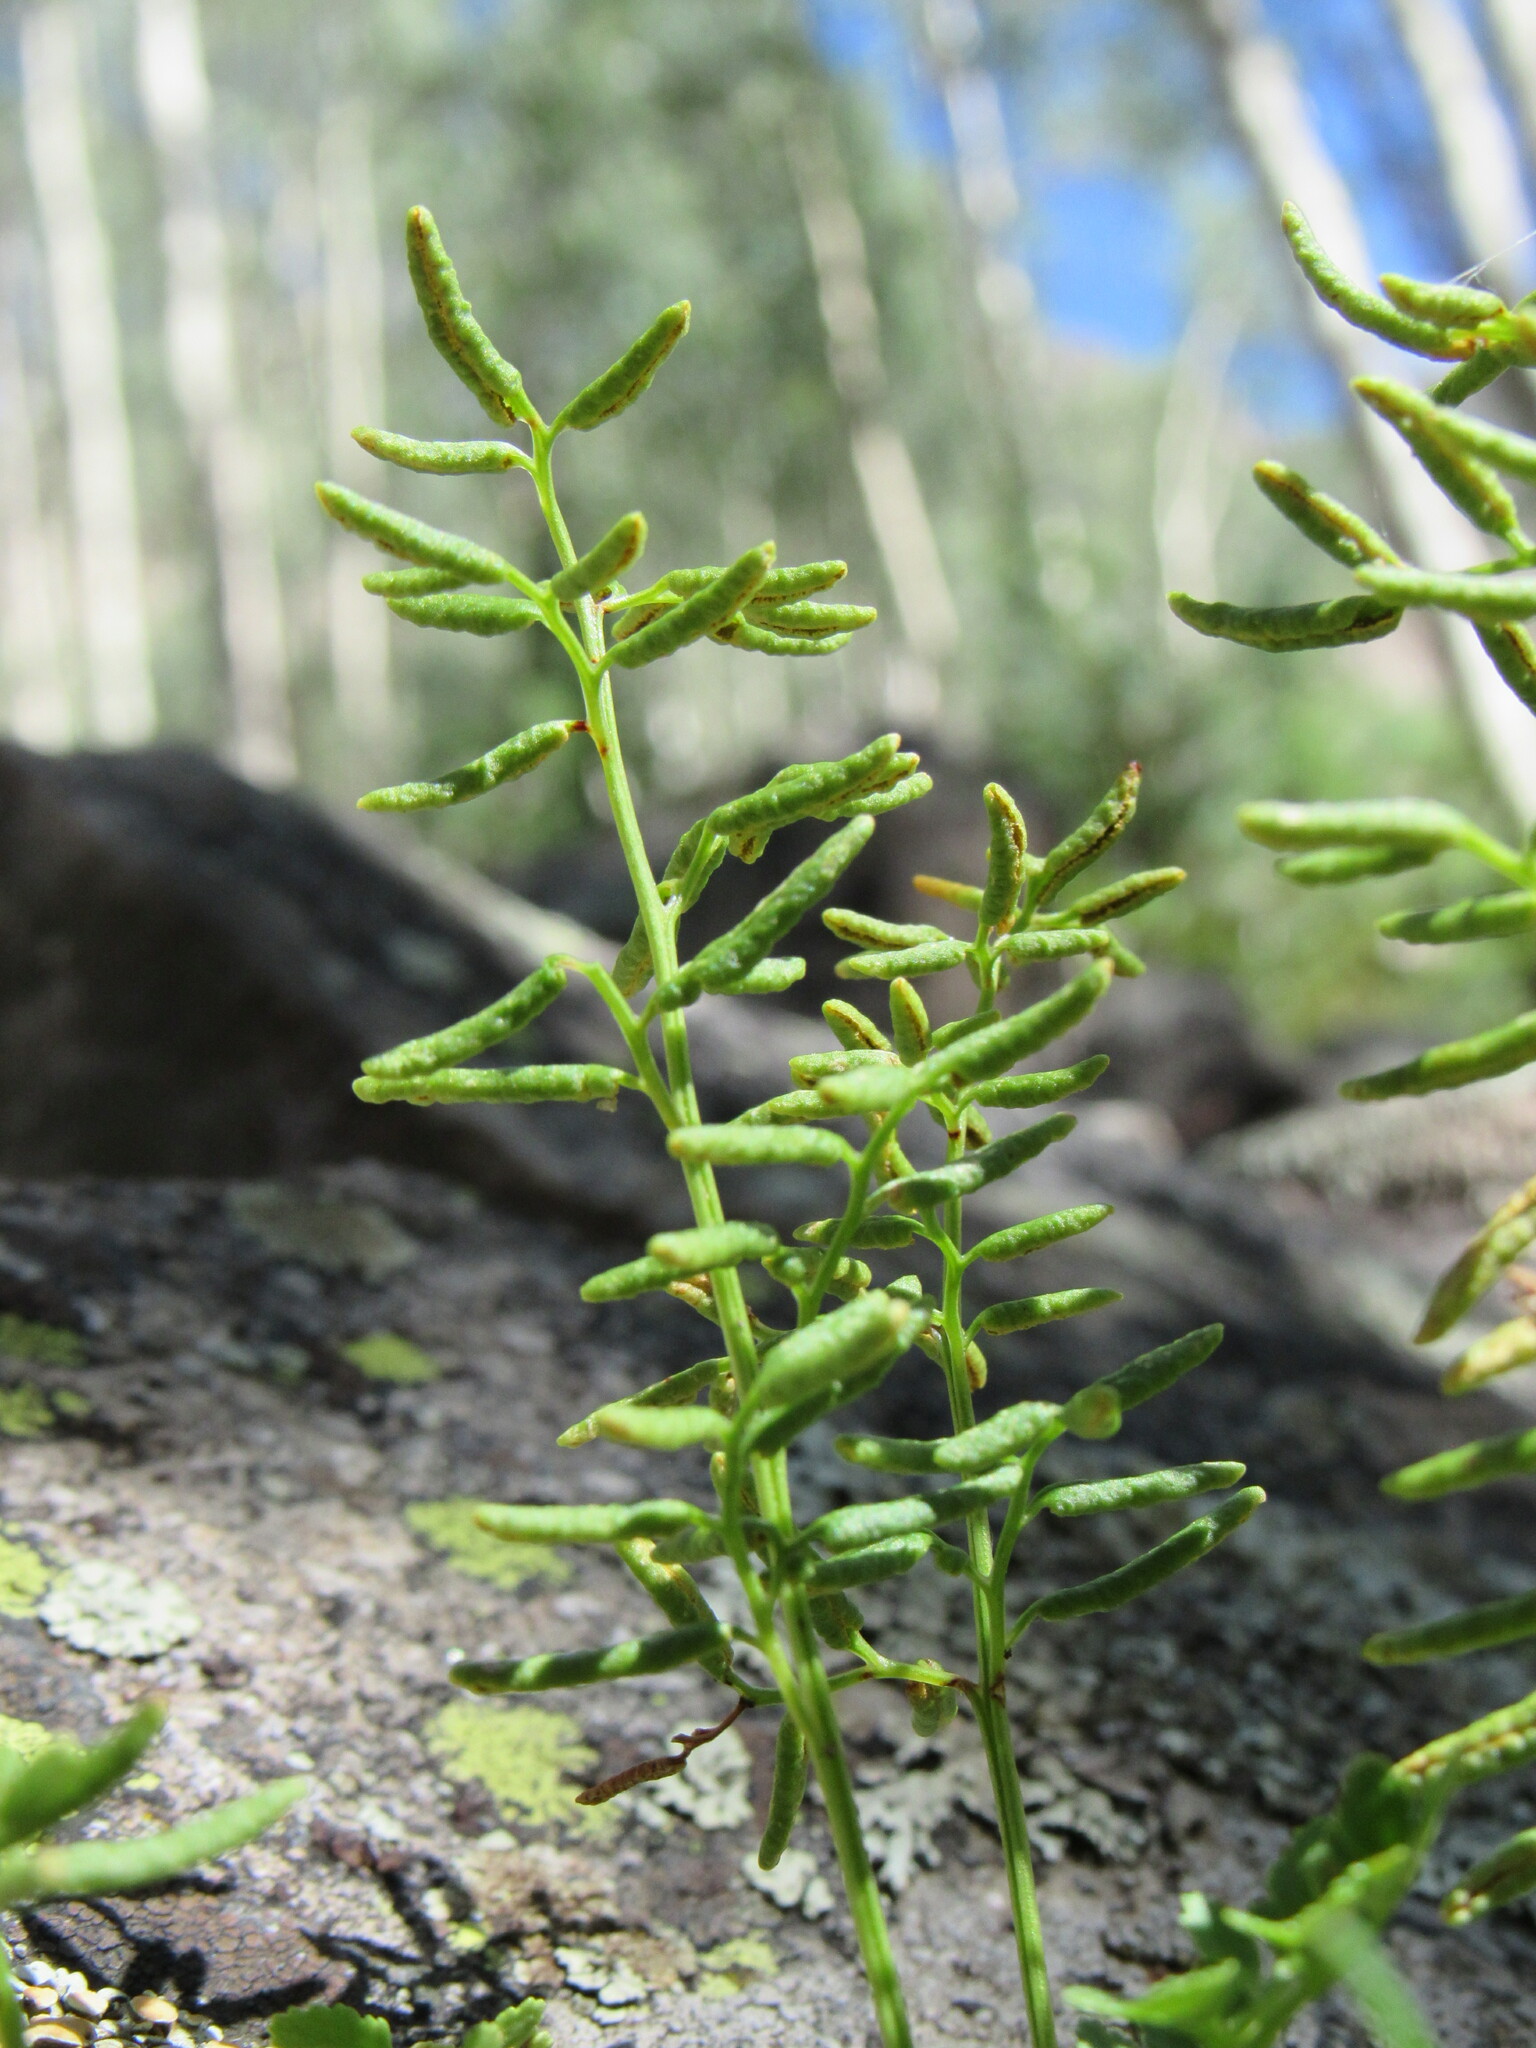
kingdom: Plantae
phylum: Tracheophyta
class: Polypodiopsida
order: Polypodiales
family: Pteridaceae
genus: Cryptogramma
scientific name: Cryptogramma acrostichoides
